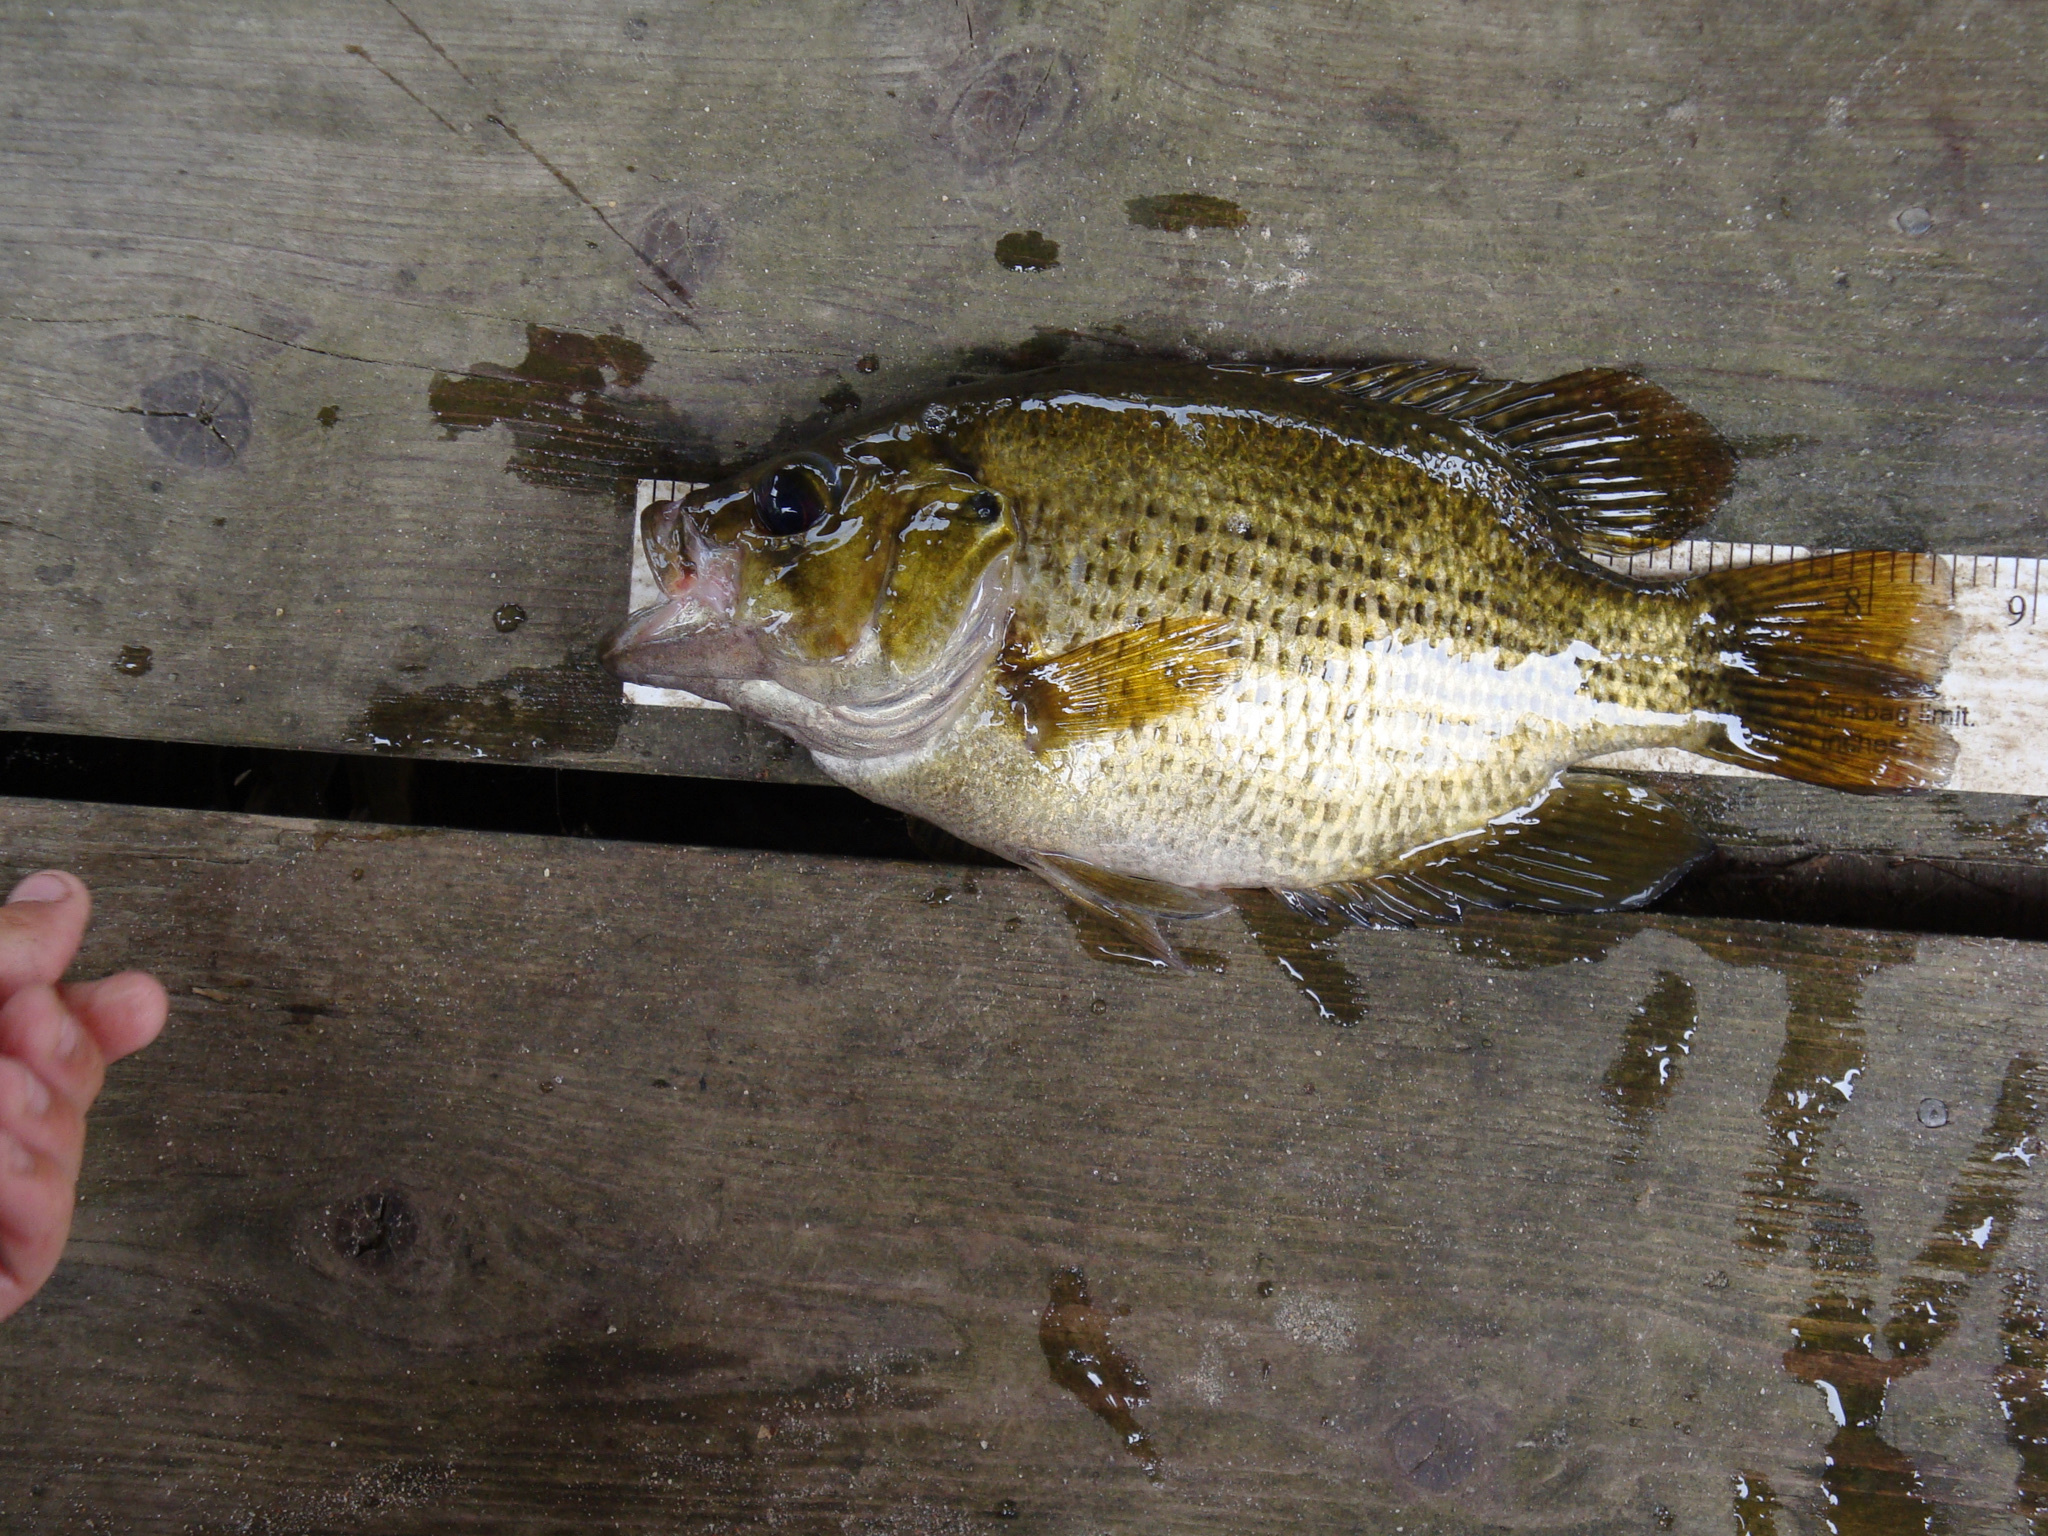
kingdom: Animalia
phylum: Chordata
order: Perciformes
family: Centrarchidae
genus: Ambloplites
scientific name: Ambloplites rupestris
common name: Rock bass
